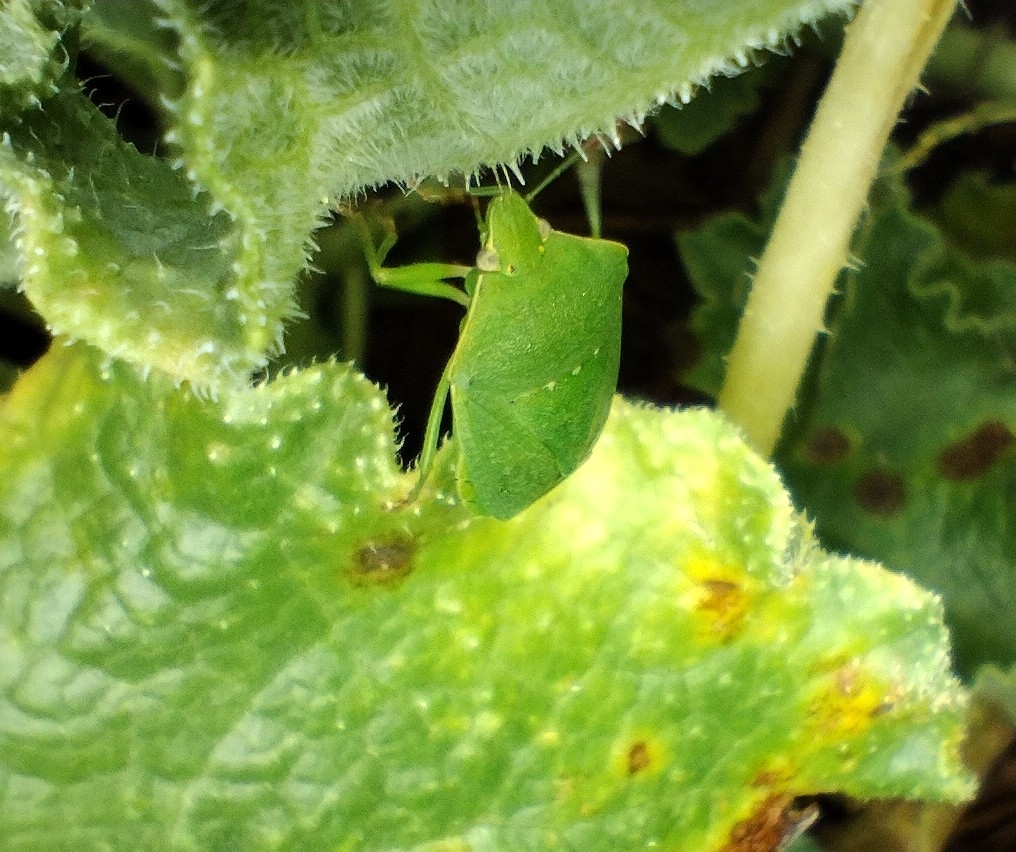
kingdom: Animalia
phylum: Arthropoda
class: Insecta
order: Hemiptera
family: Pentatomidae
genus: Nezara
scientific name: Nezara viridula
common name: Southern green stink bug
